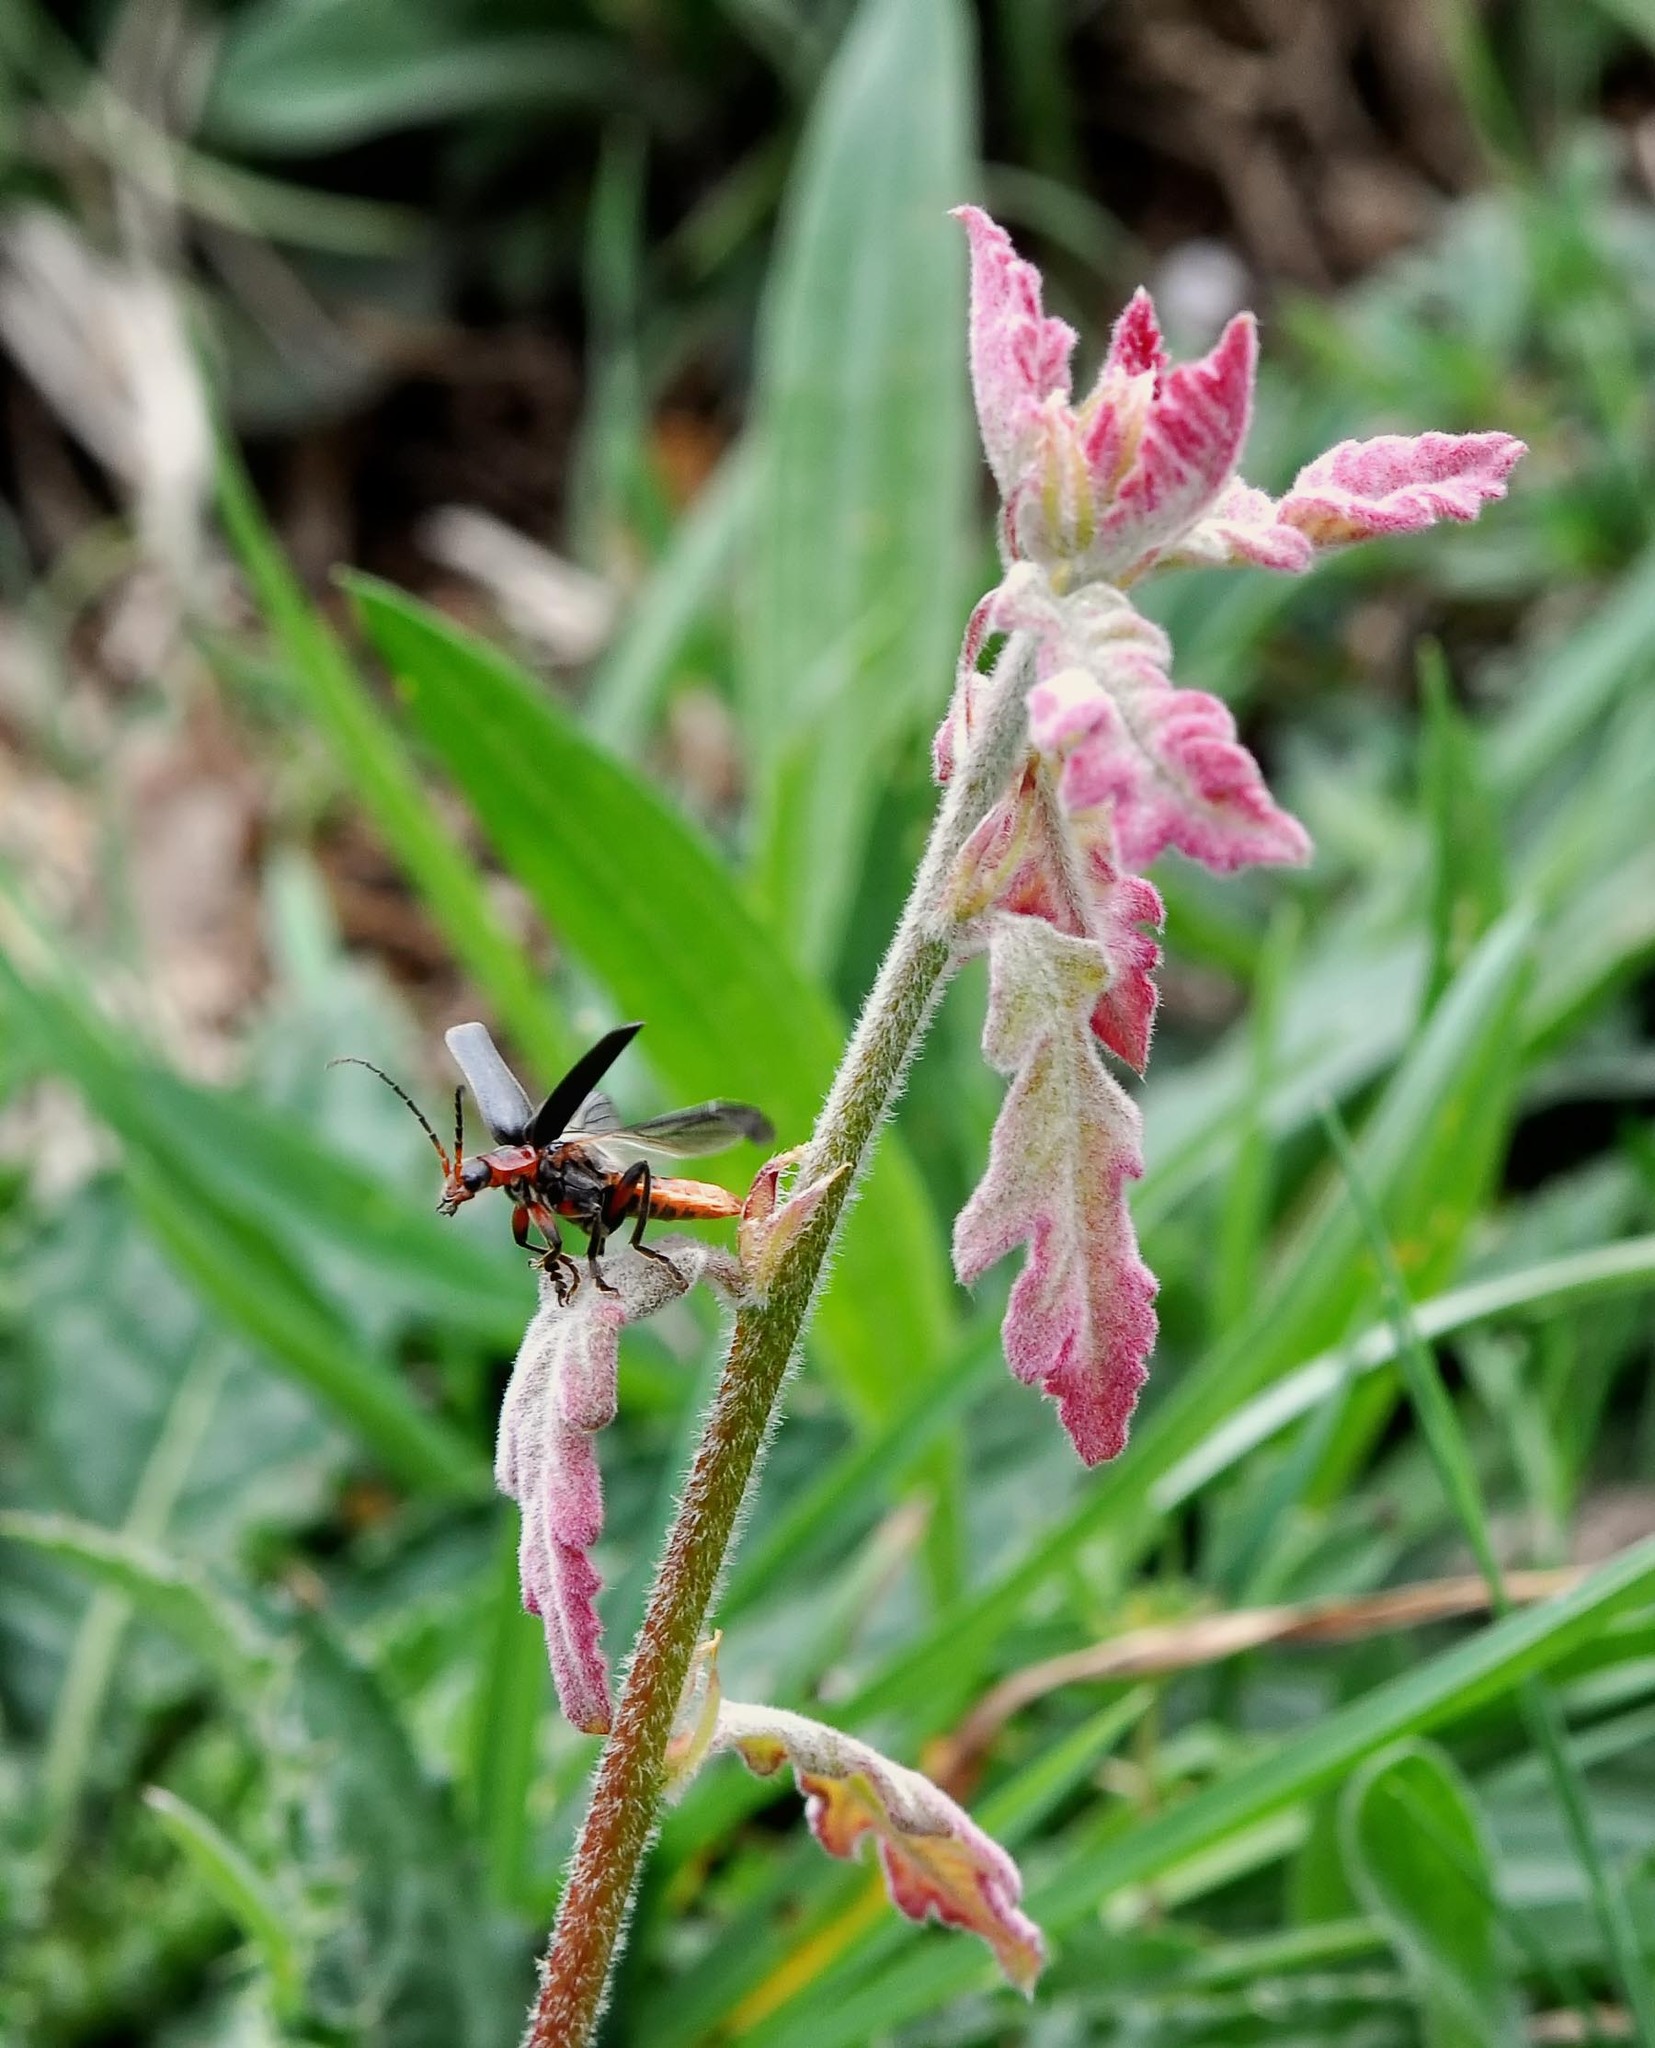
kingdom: Animalia
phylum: Arthropoda
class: Insecta
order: Coleoptera
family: Cantharidae
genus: Cantharis
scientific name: Cantharis rustica
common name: Soldier beetle
